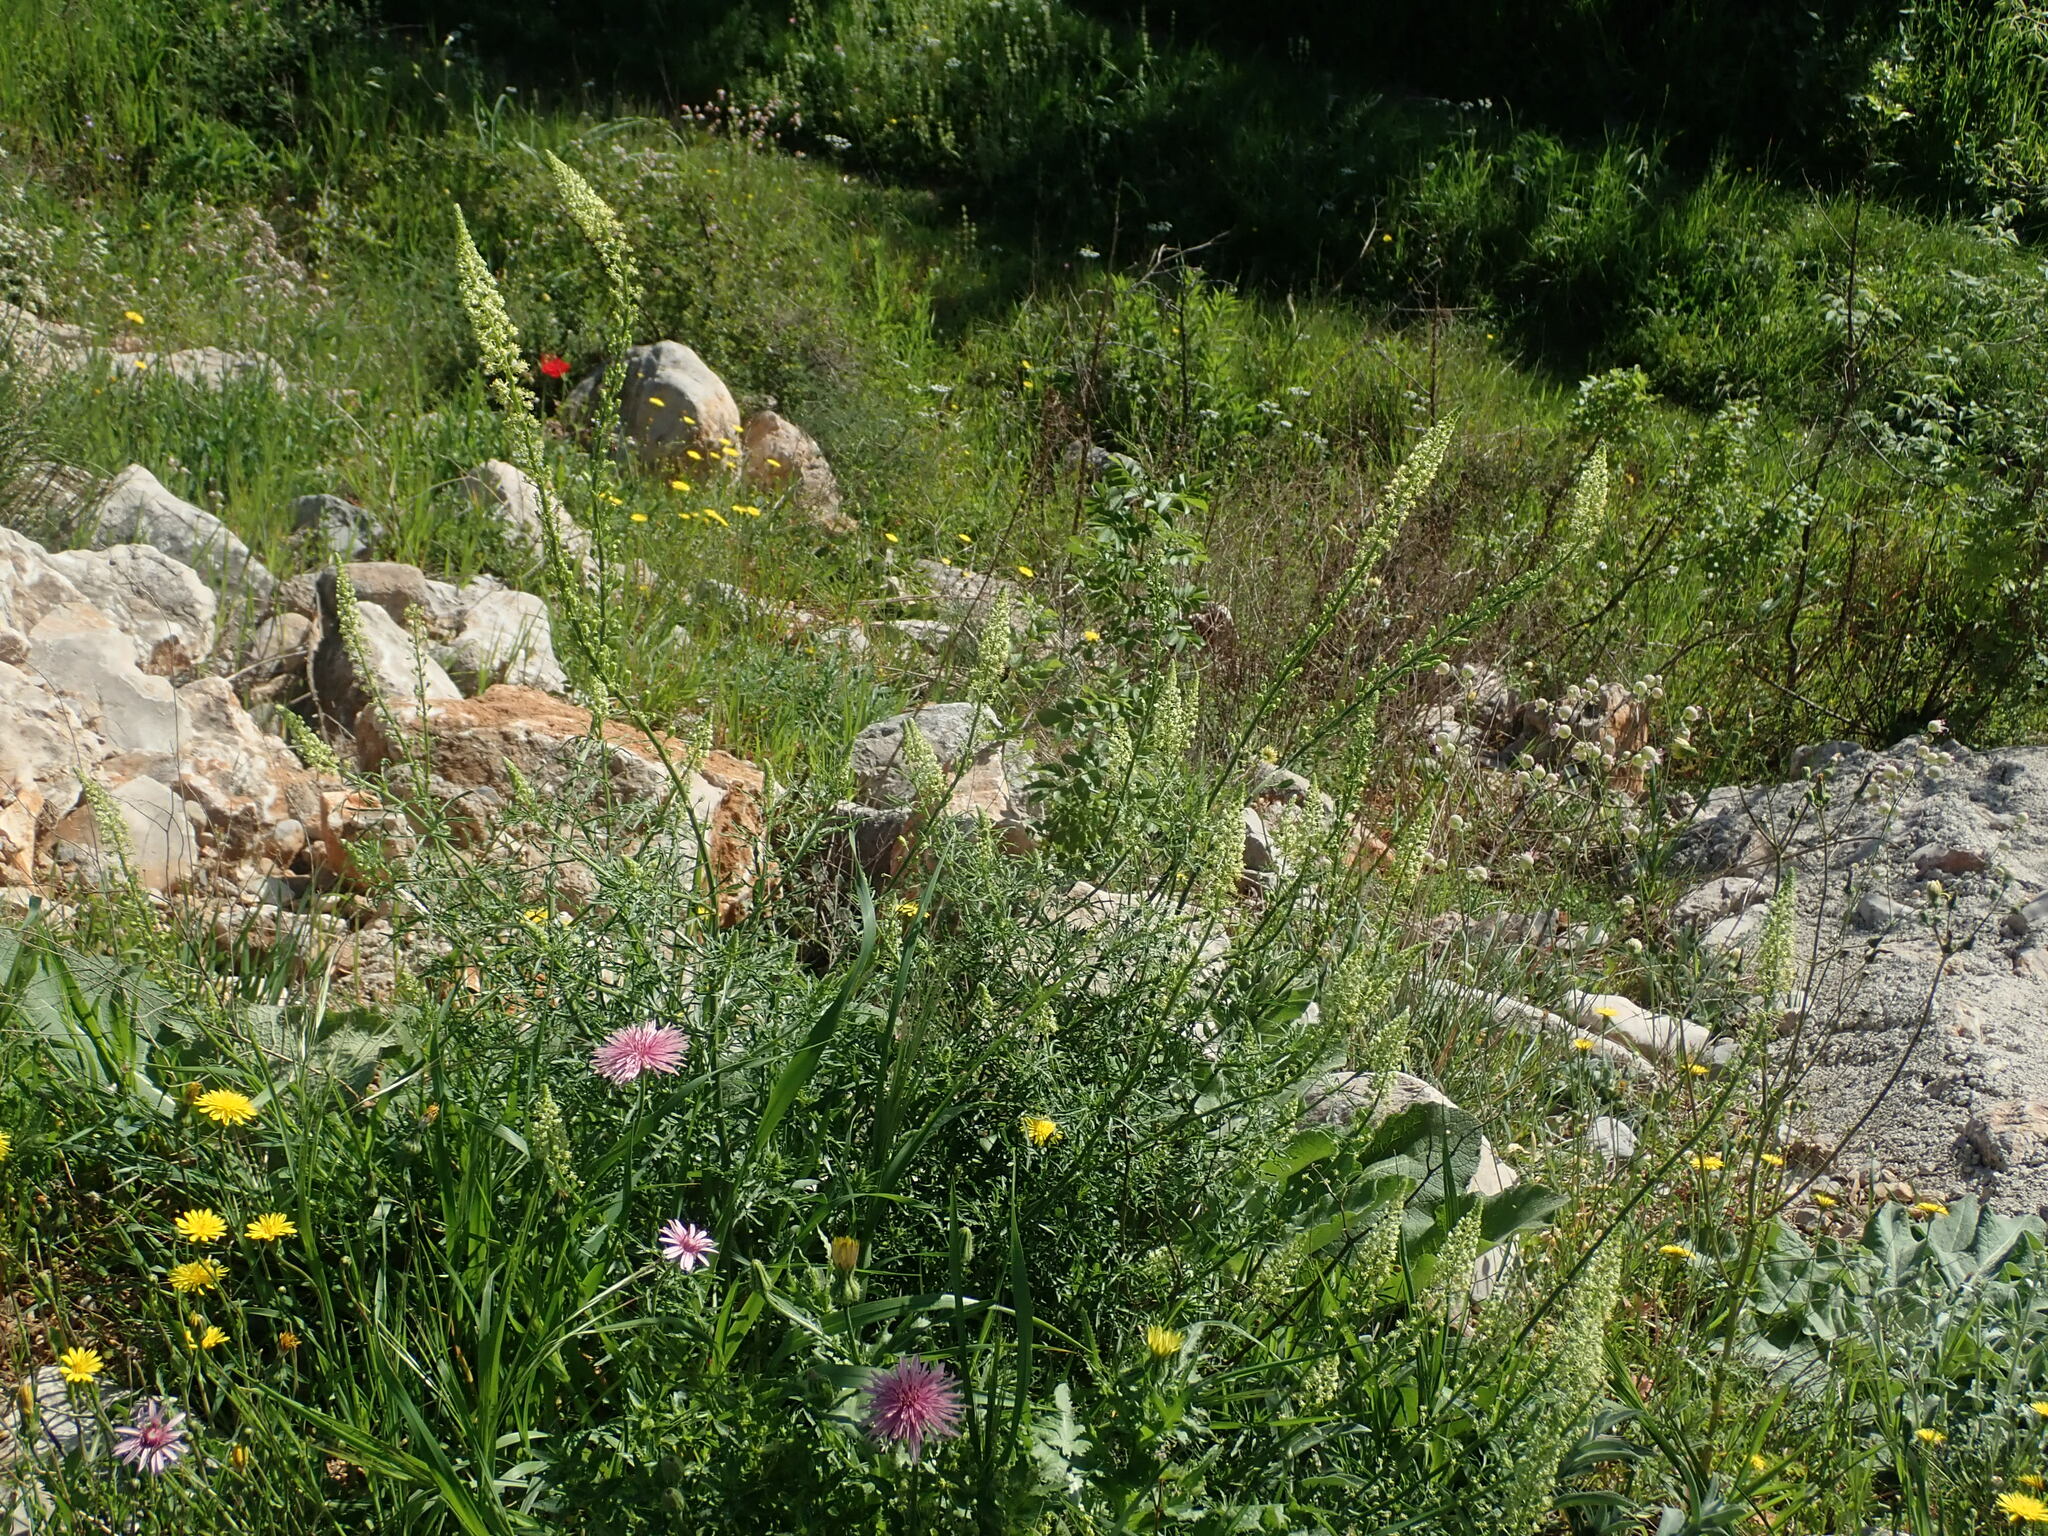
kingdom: Plantae
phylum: Tracheophyta
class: Magnoliopsida
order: Brassicales
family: Resedaceae
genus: Reseda
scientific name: Reseda lutea
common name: Wild mignonette
